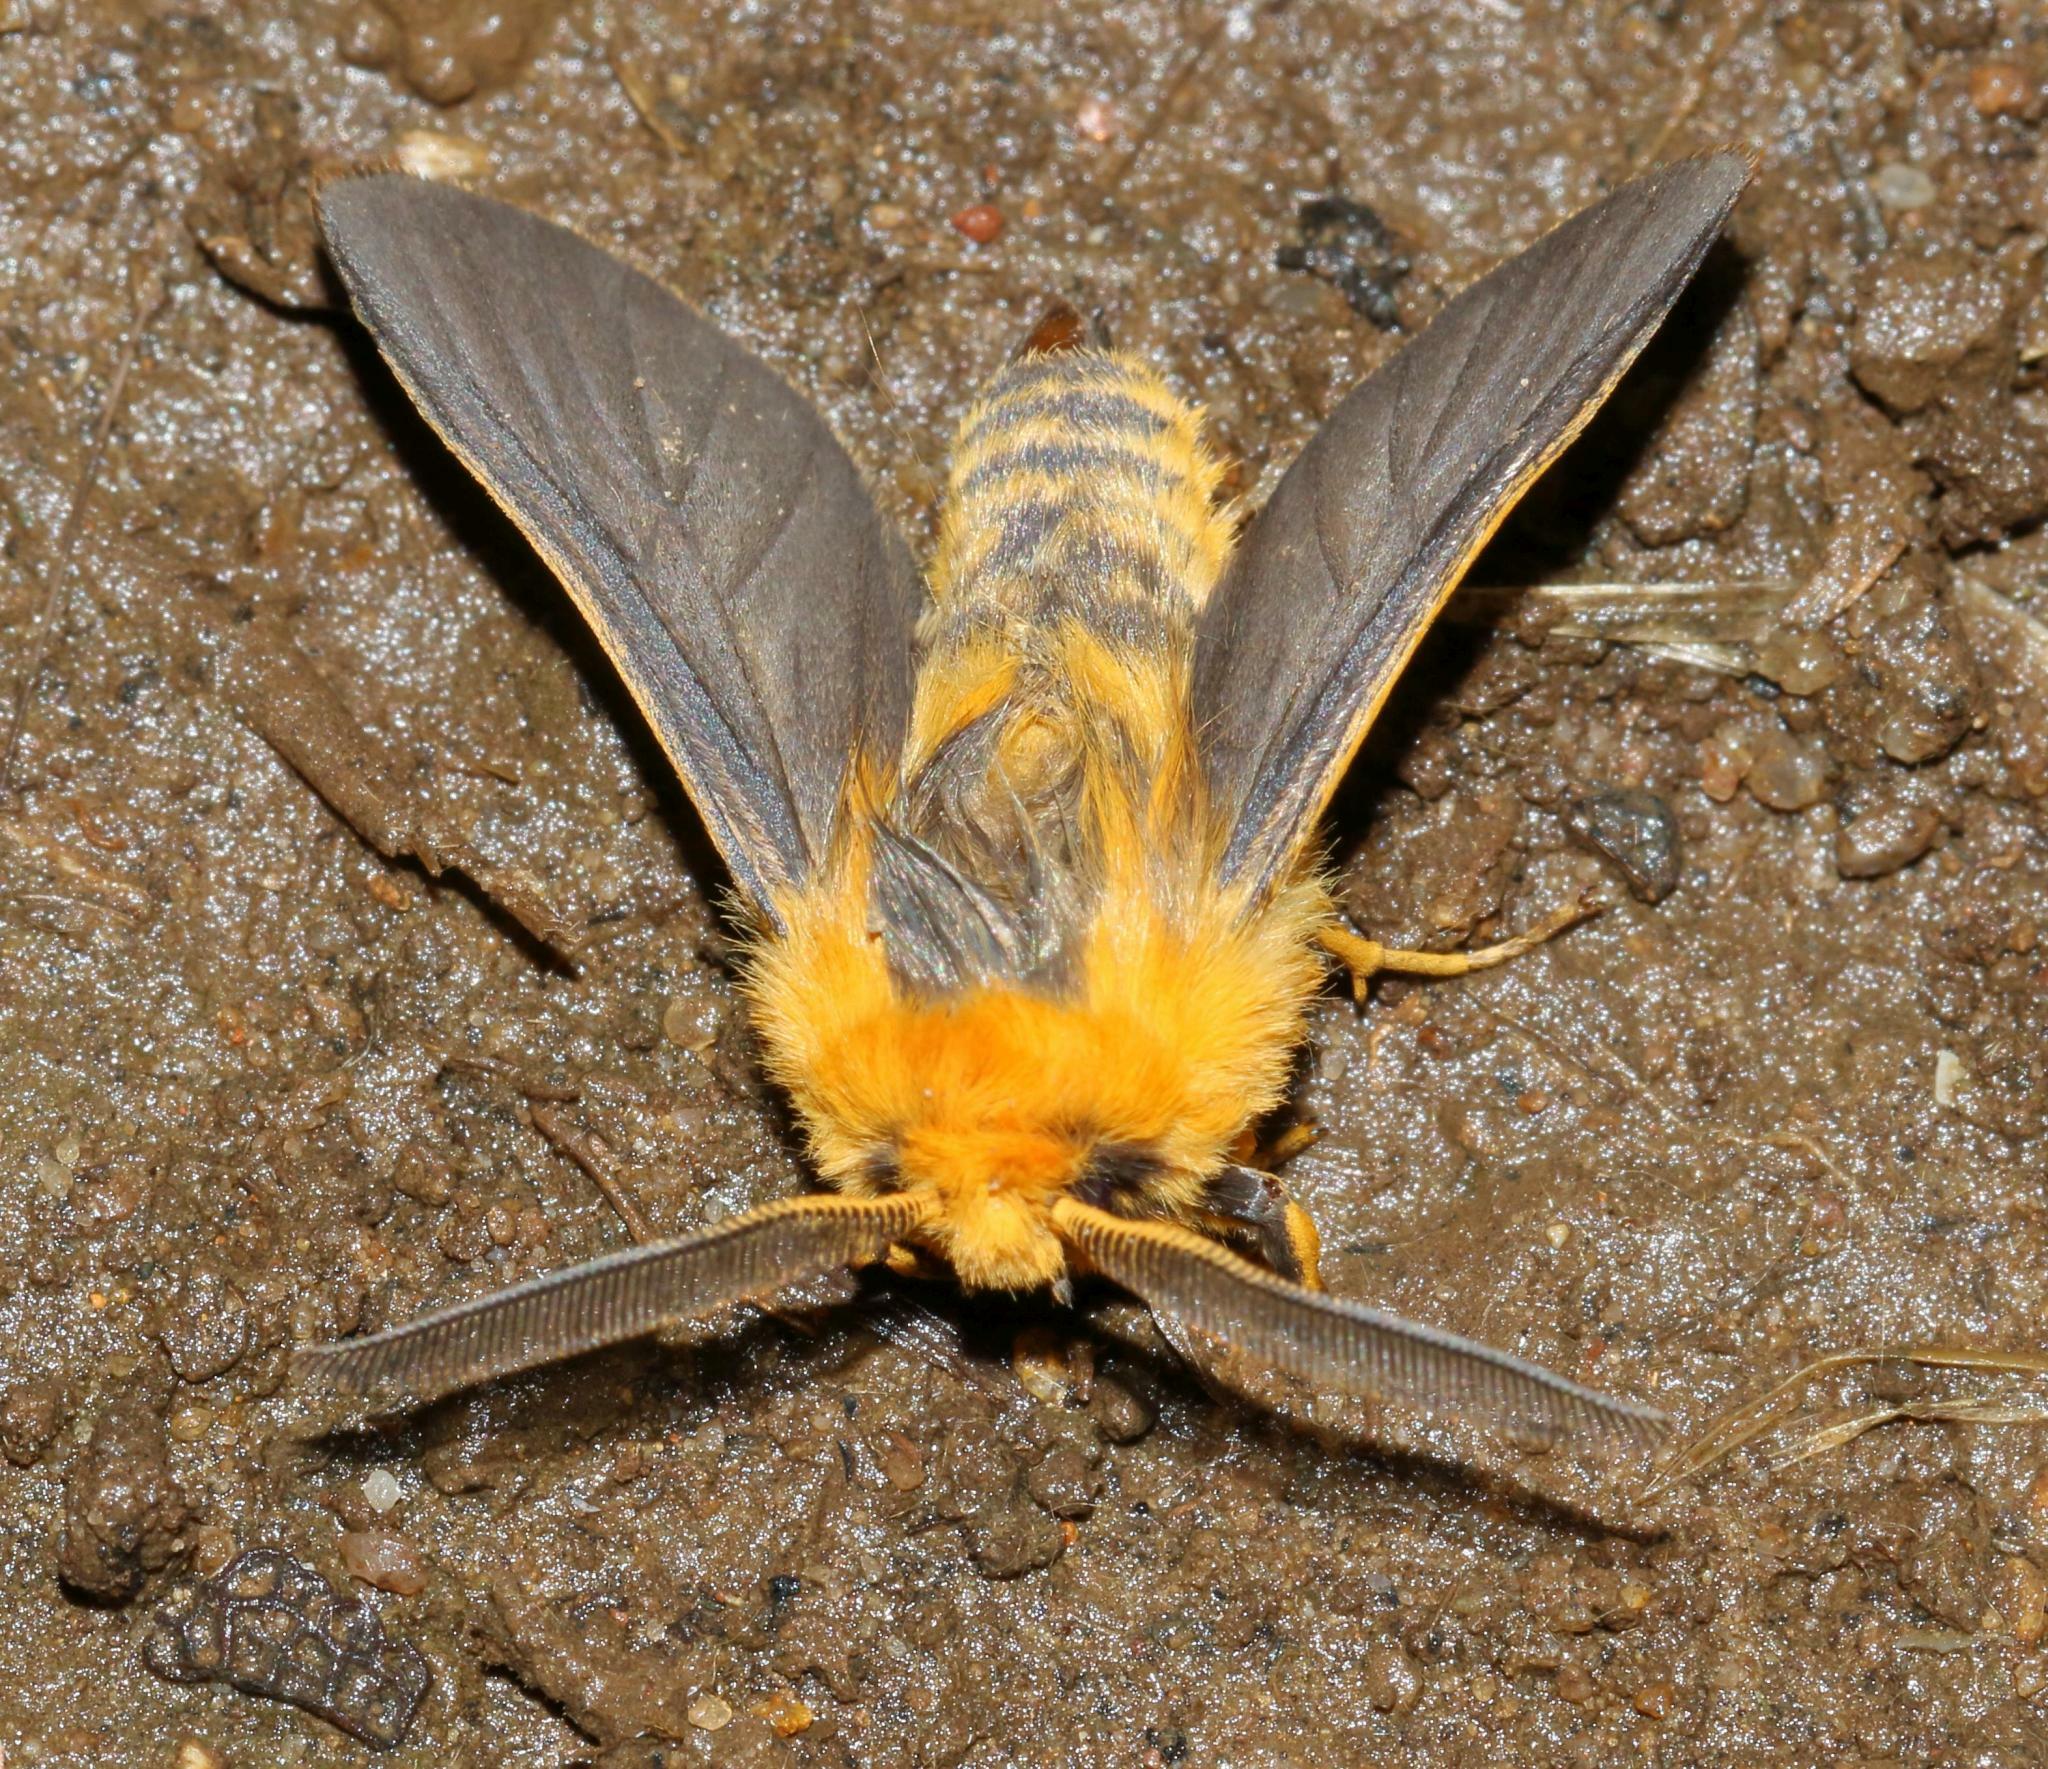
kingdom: Animalia
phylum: Arthropoda
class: Insecta
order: Lepidoptera
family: Erebidae
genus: Automolis
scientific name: Automolis bicolora
